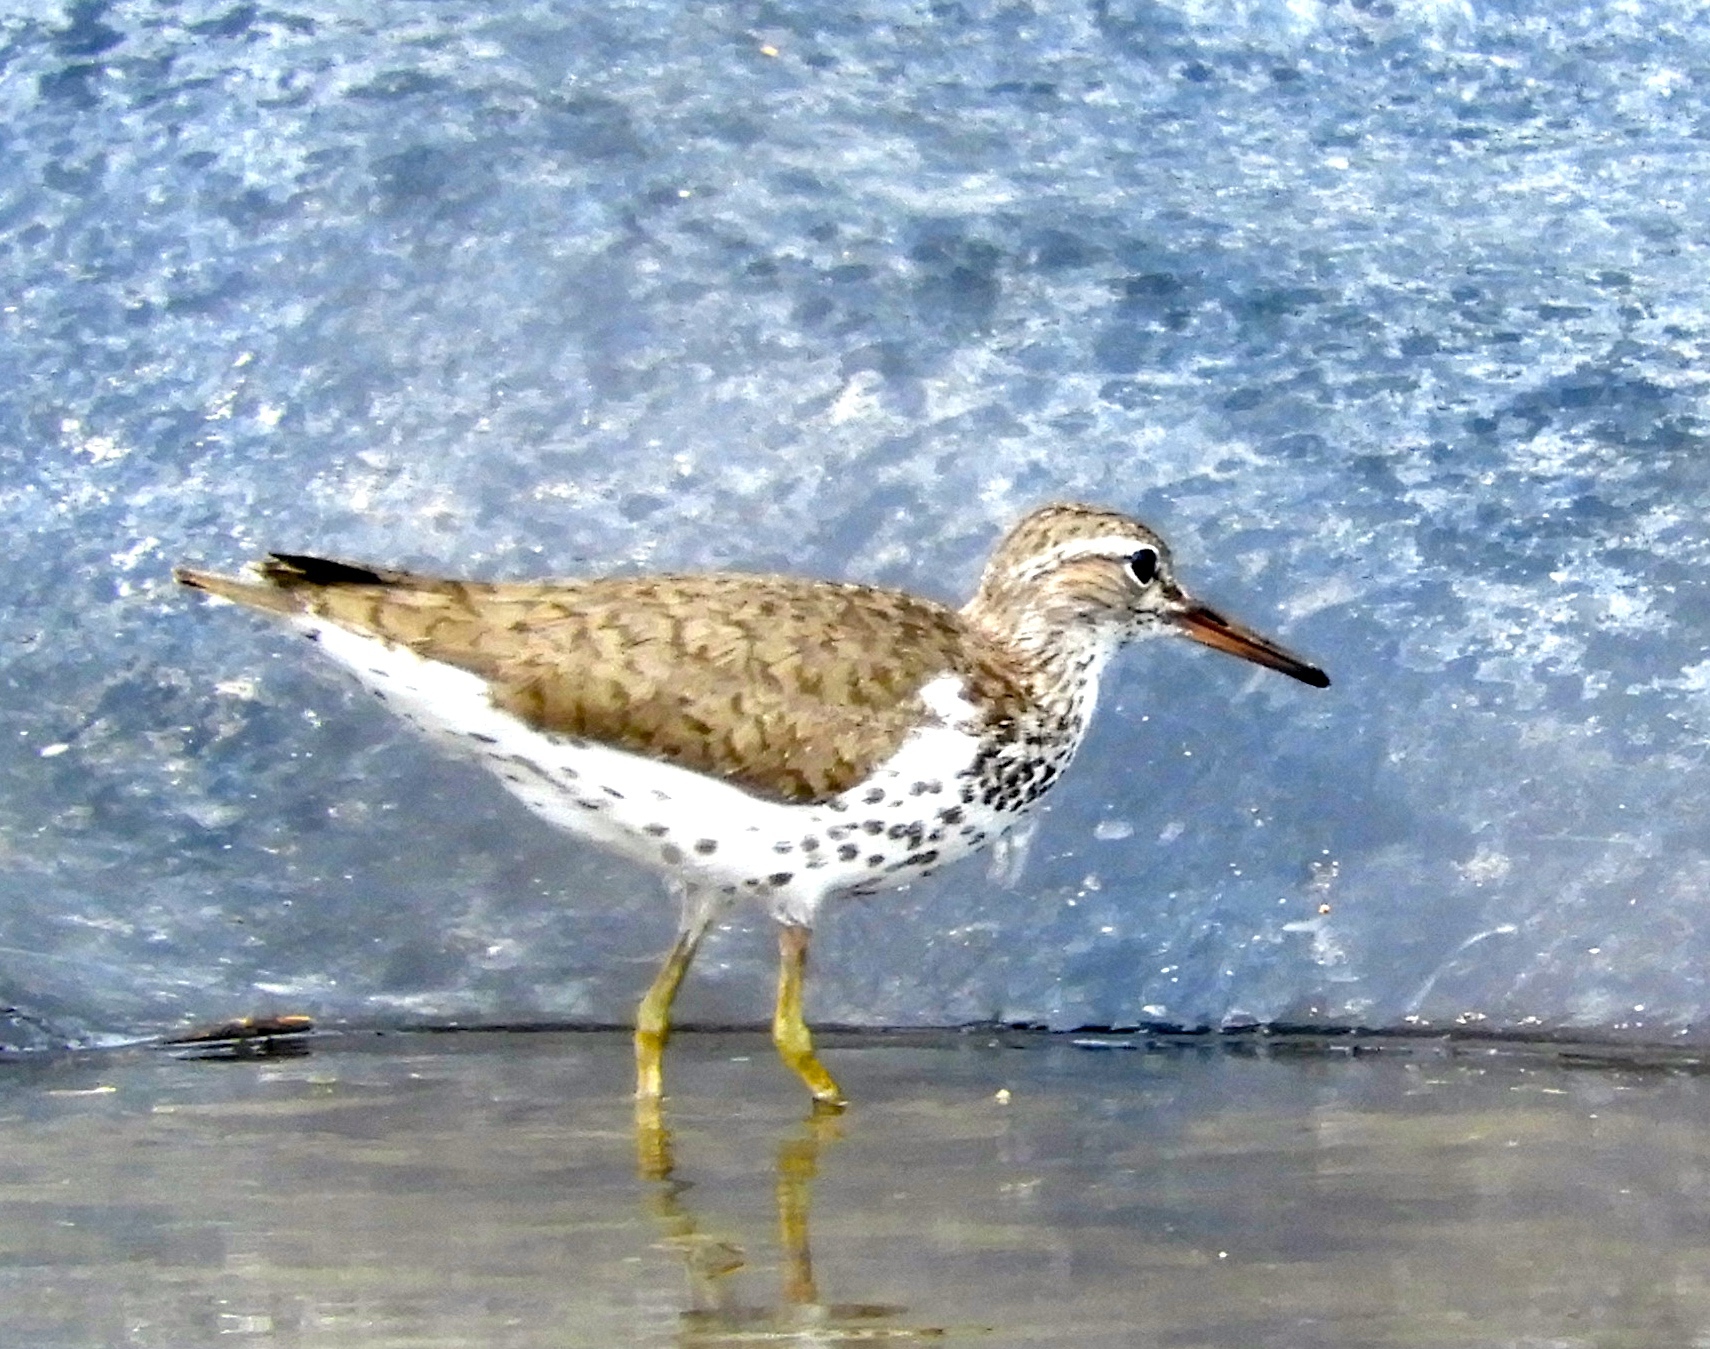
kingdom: Animalia
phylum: Chordata
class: Aves
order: Charadriiformes
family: Scolopacidae
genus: Actitis
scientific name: Actitis macularius
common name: Spotted sandpiper
